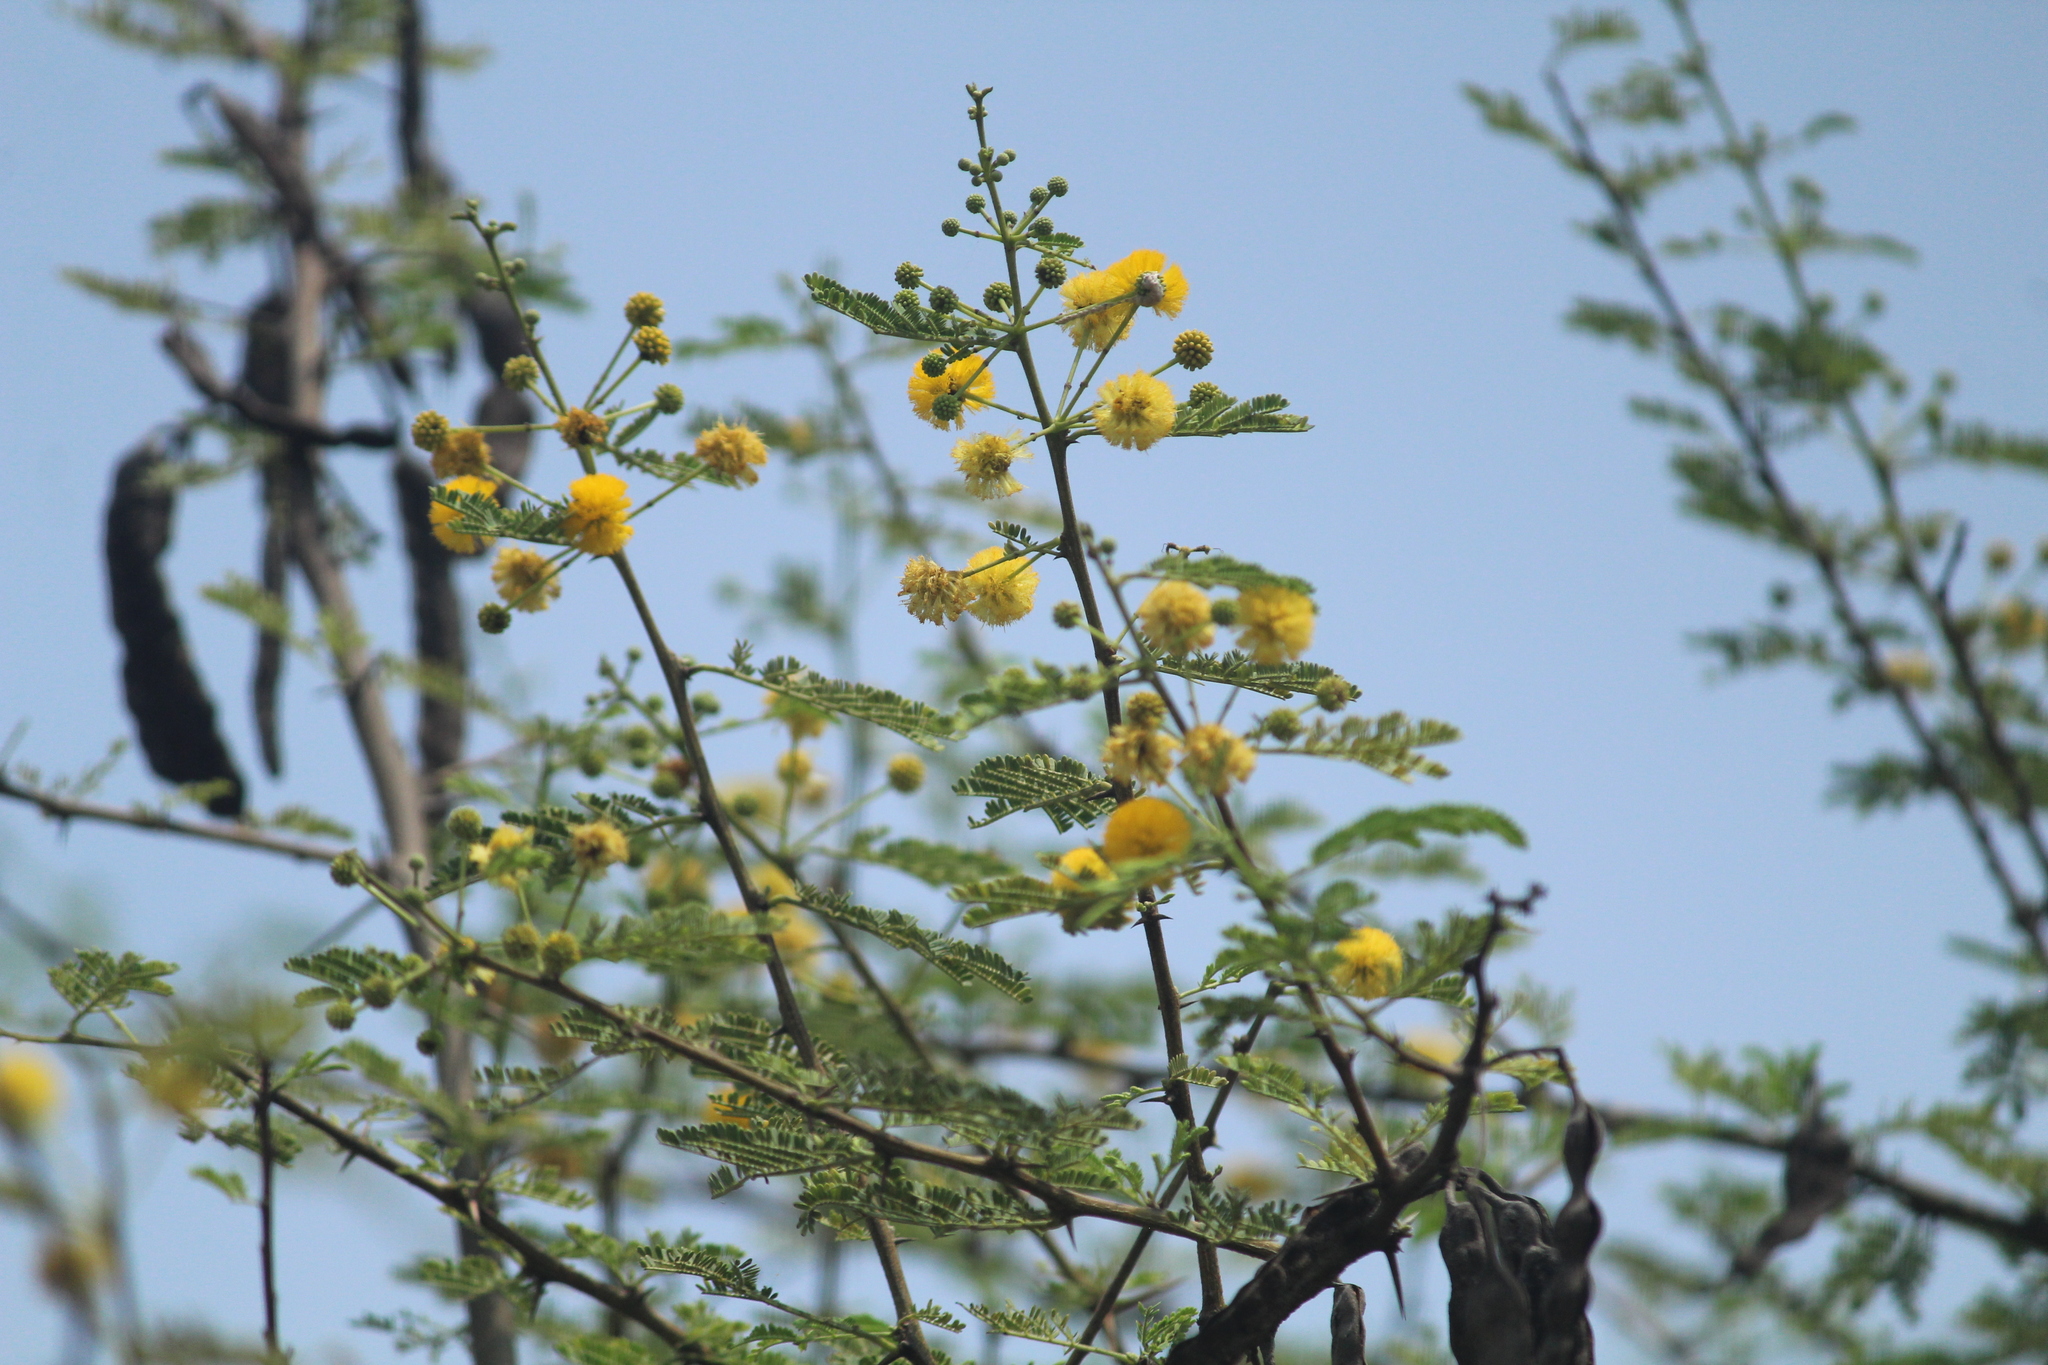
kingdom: Plantae
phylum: Tracheophyta
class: Magnoliopsida
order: Fabales
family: Fabaceae
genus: Vachellia
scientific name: Vachellia farnesiana
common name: Sweet acacia
